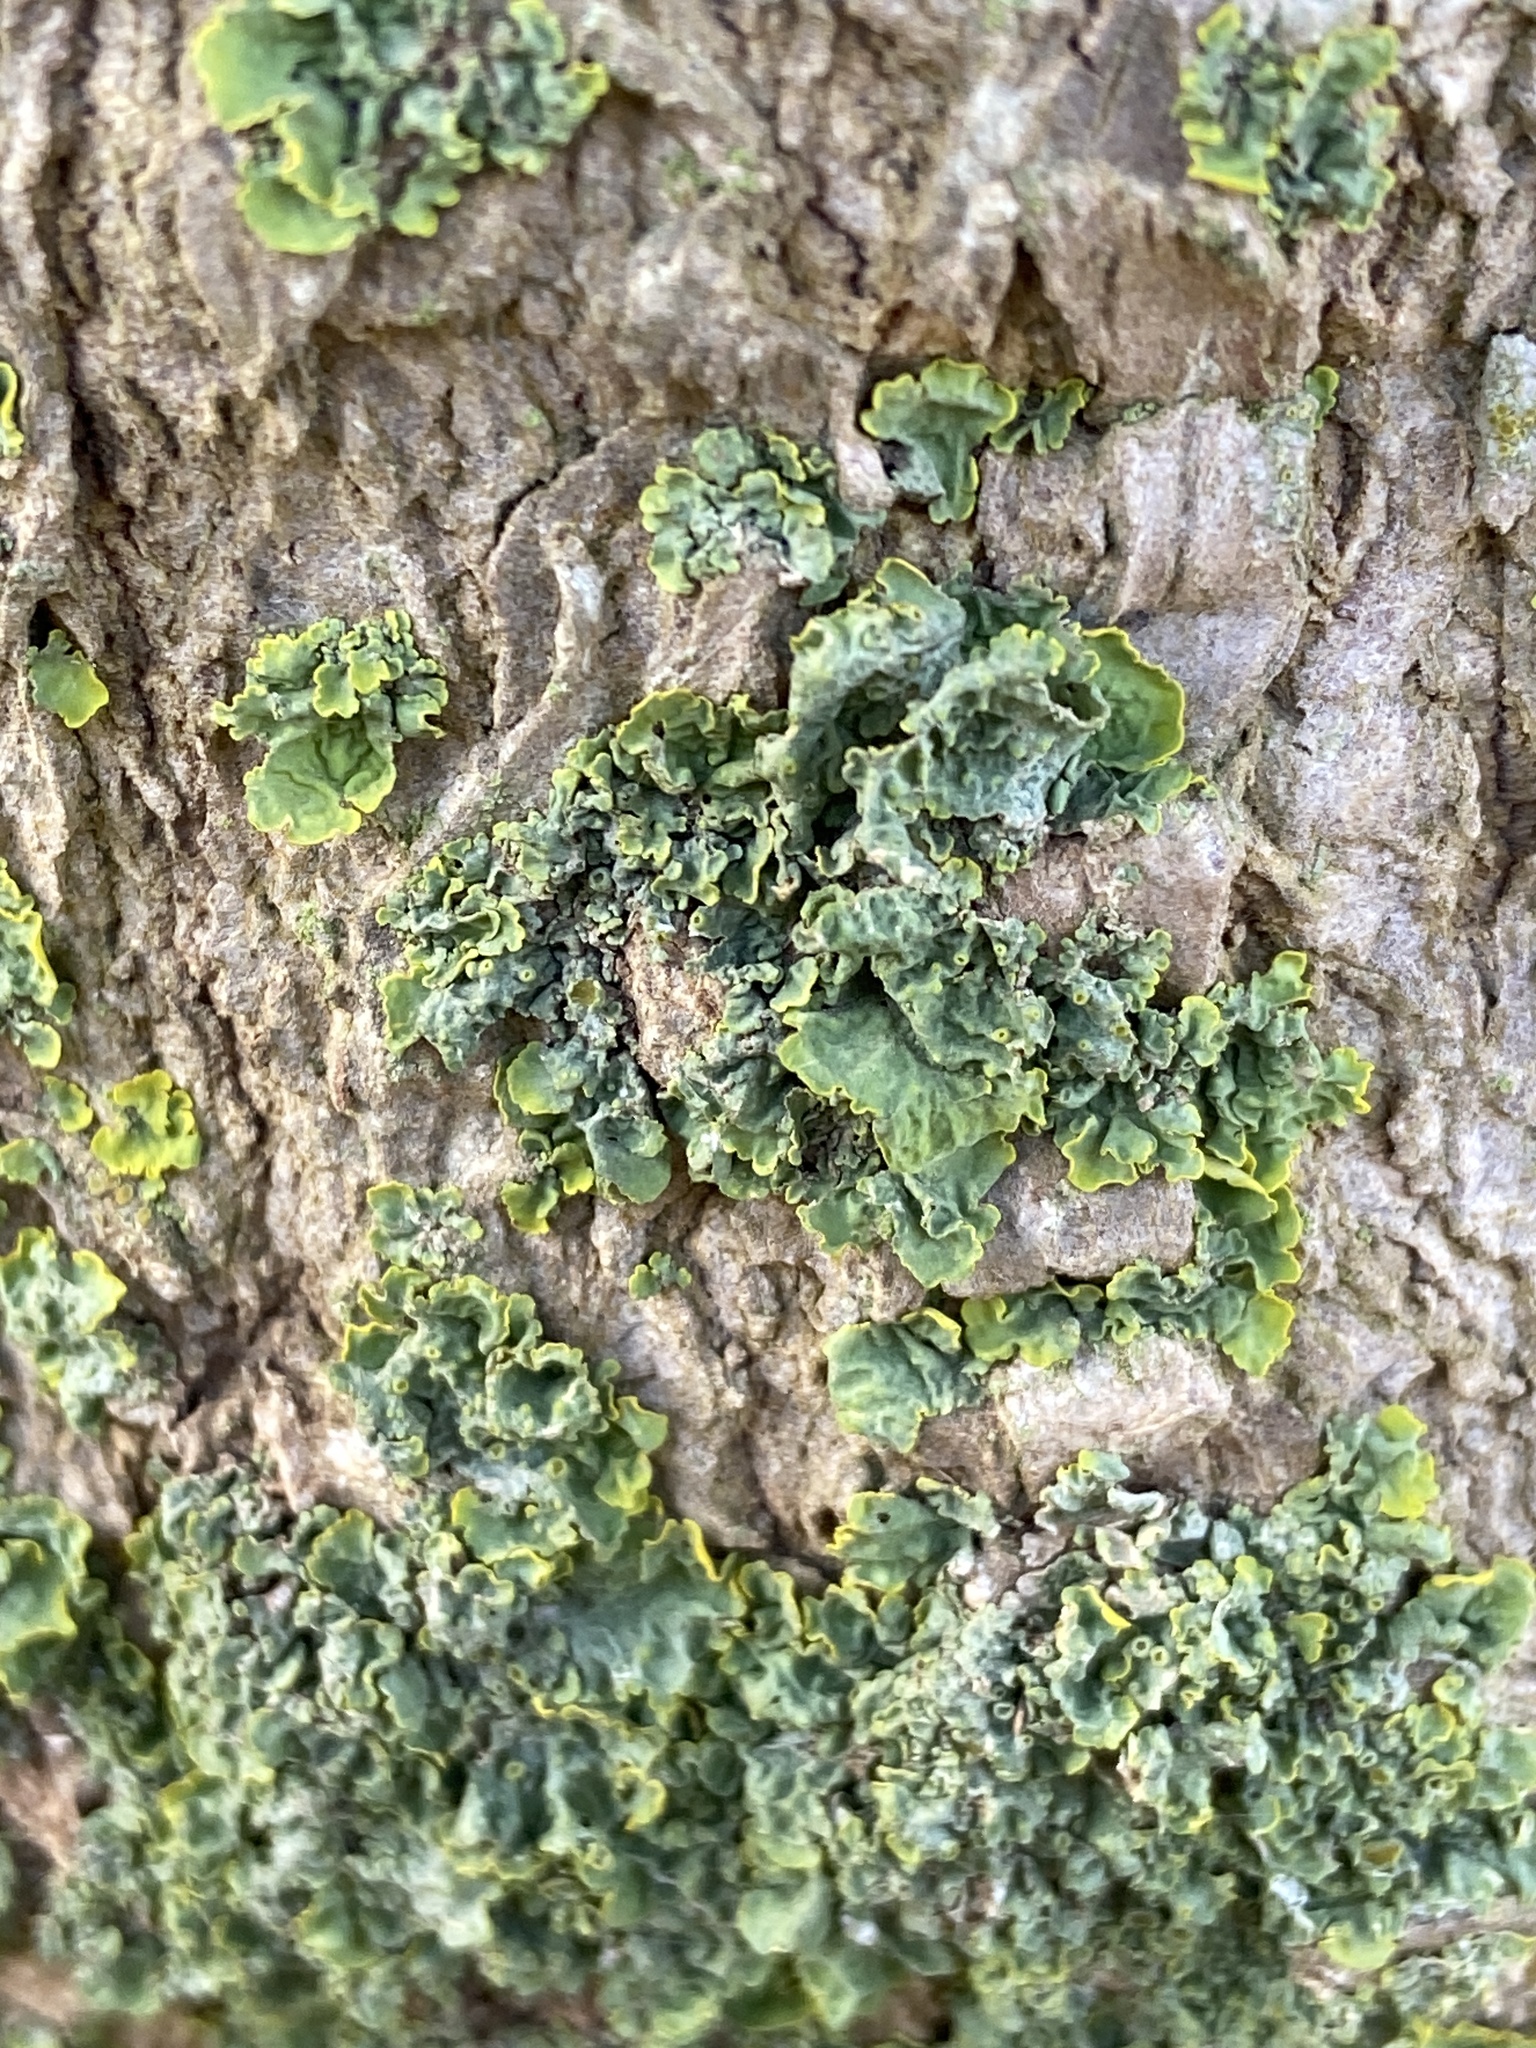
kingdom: Fungi
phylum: Ascomycota
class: Lecanoromycetes
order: Teloschistales
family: Teloschistaceae
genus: Xanthoria
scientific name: Xanthoria parietina
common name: Common orange lichen
